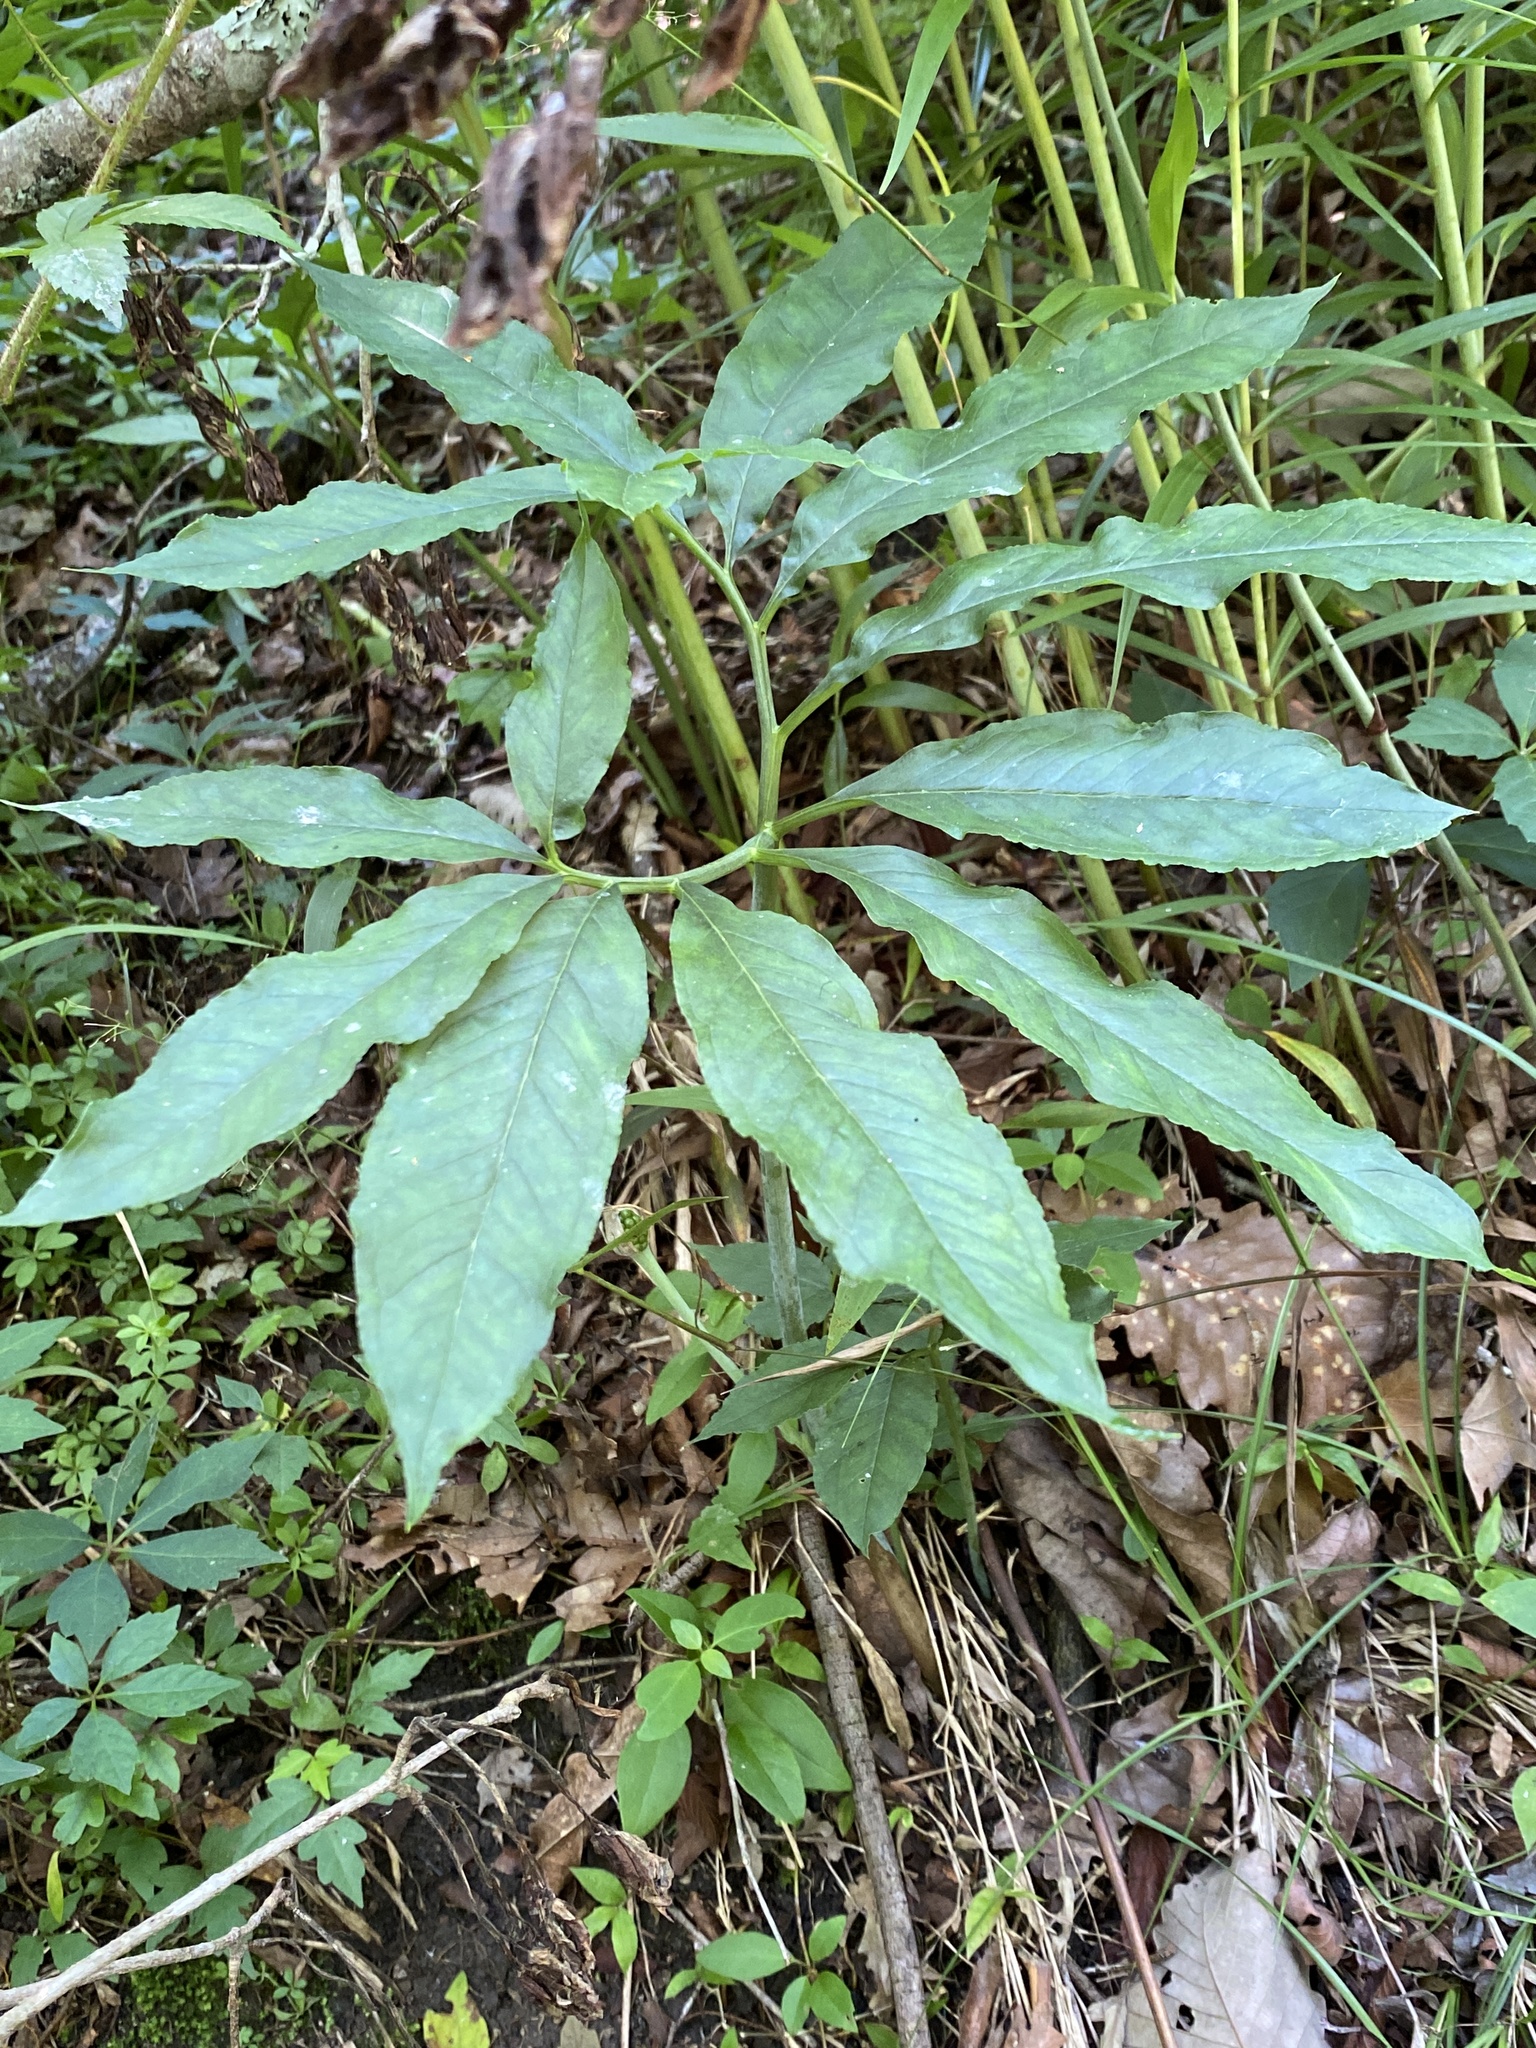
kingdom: Plantae
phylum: Tracheophyta
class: Liliopsida
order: Alismatales
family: Araceae
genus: Arisaema
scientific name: Arisaema dracontium
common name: Dragon-arum
